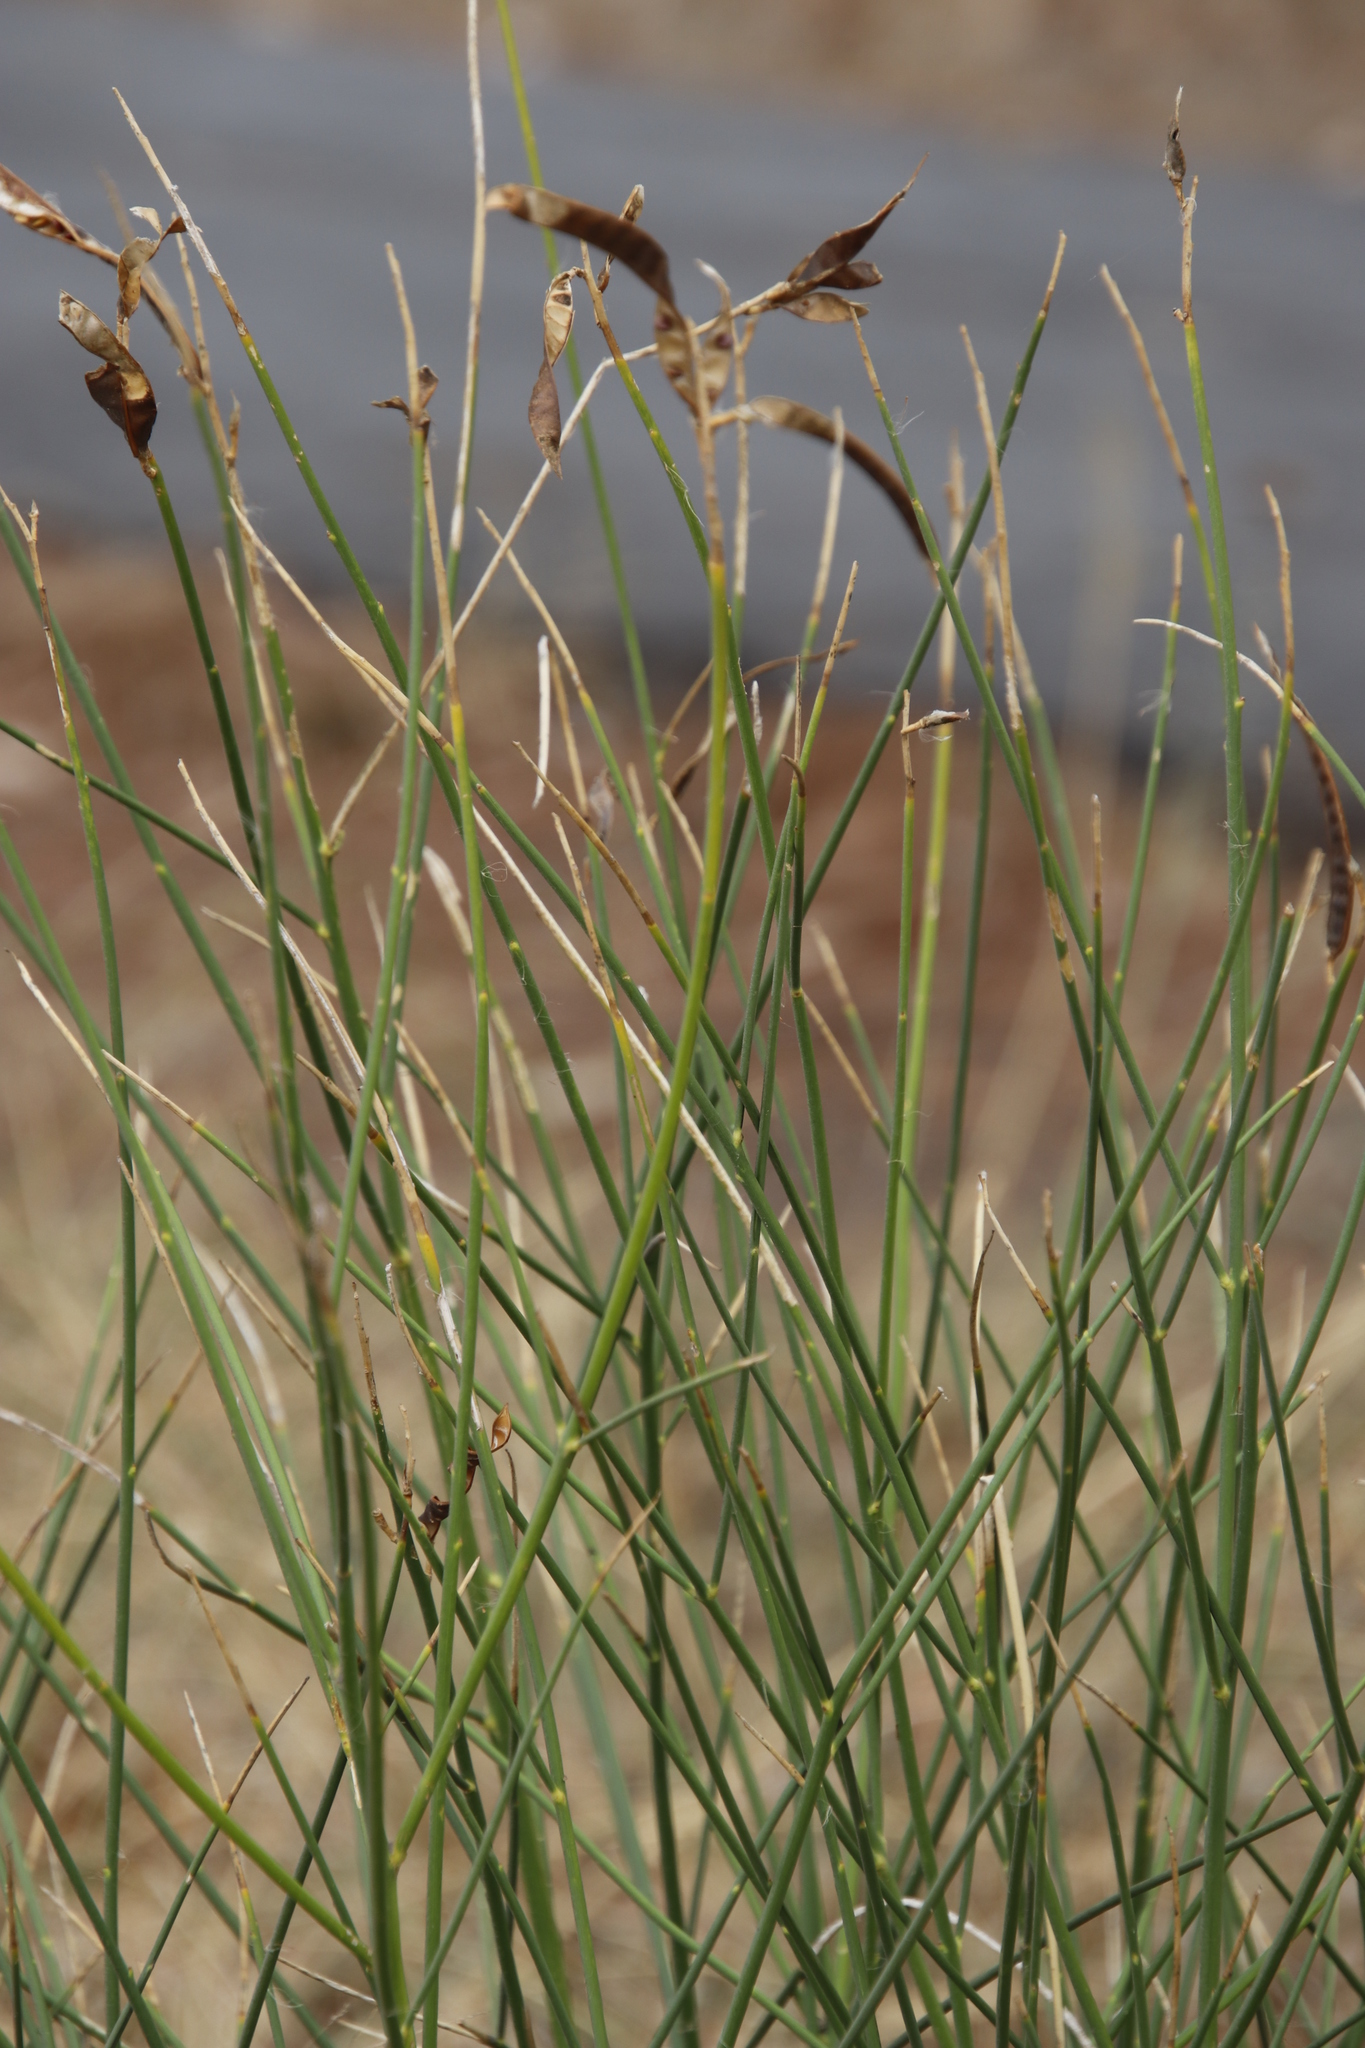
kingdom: Plantae
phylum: Tracheophyta
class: Magnoliopsida
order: Fabales
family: Fabaceae
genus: Spartium
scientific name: Spartium junceum
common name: Spanish broom
